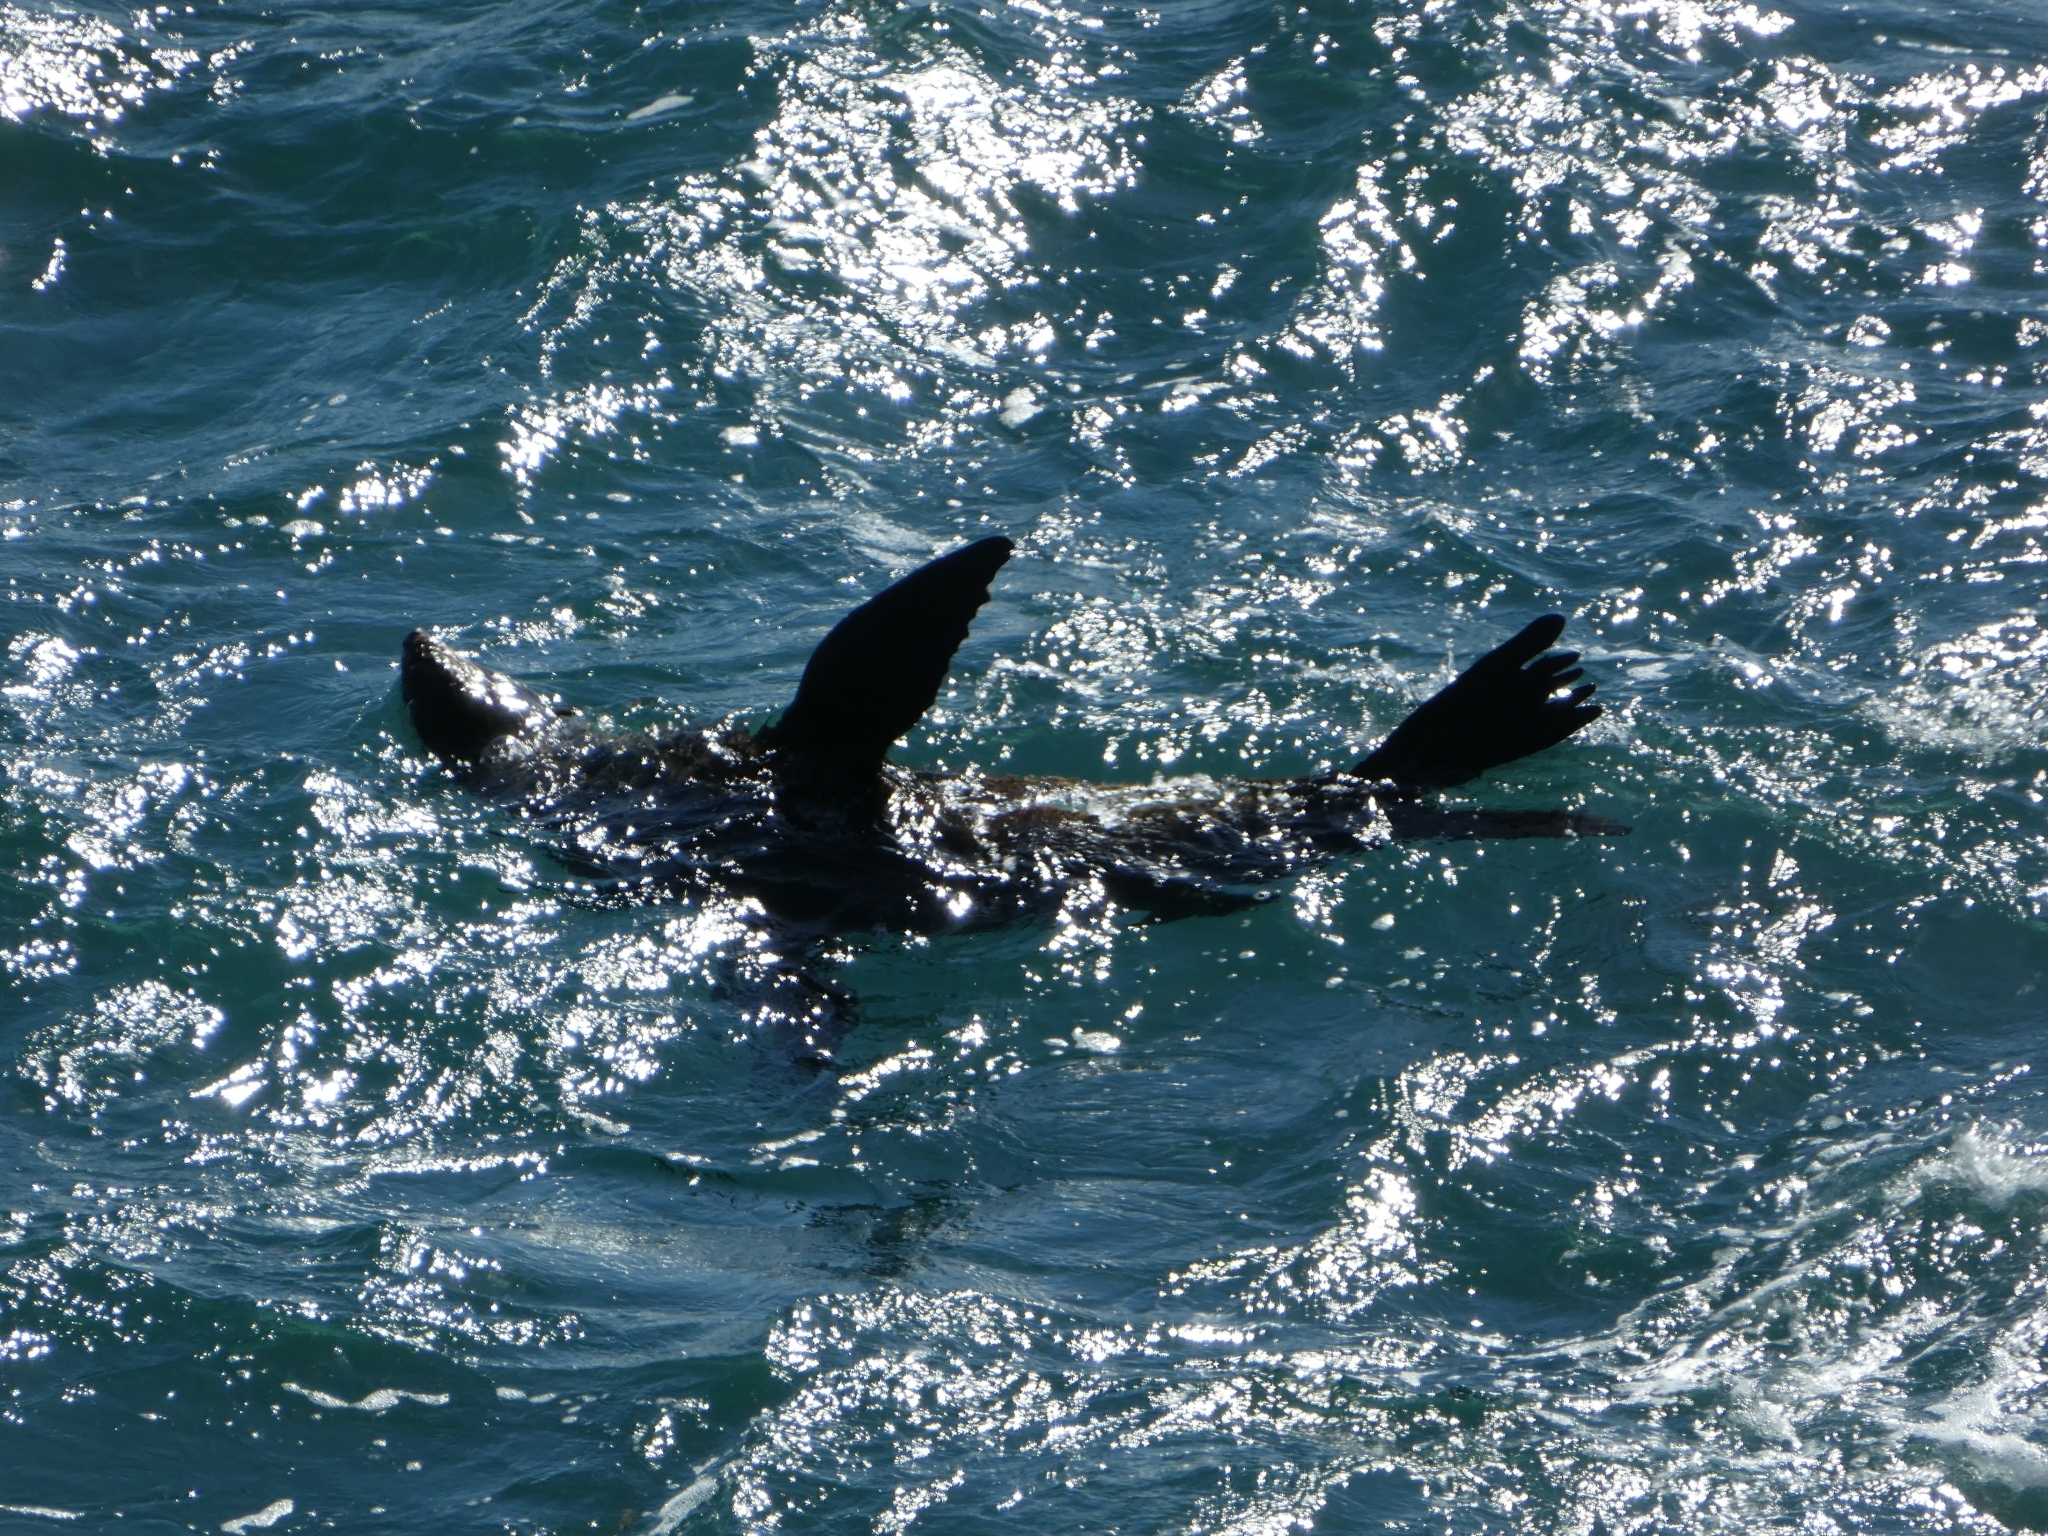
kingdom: Animalia
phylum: Chordata
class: Mammalia
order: Carnivora
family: Otariidae
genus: Arctocephalus
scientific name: Arctocephalus forsteri
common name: New zealand fur seal
